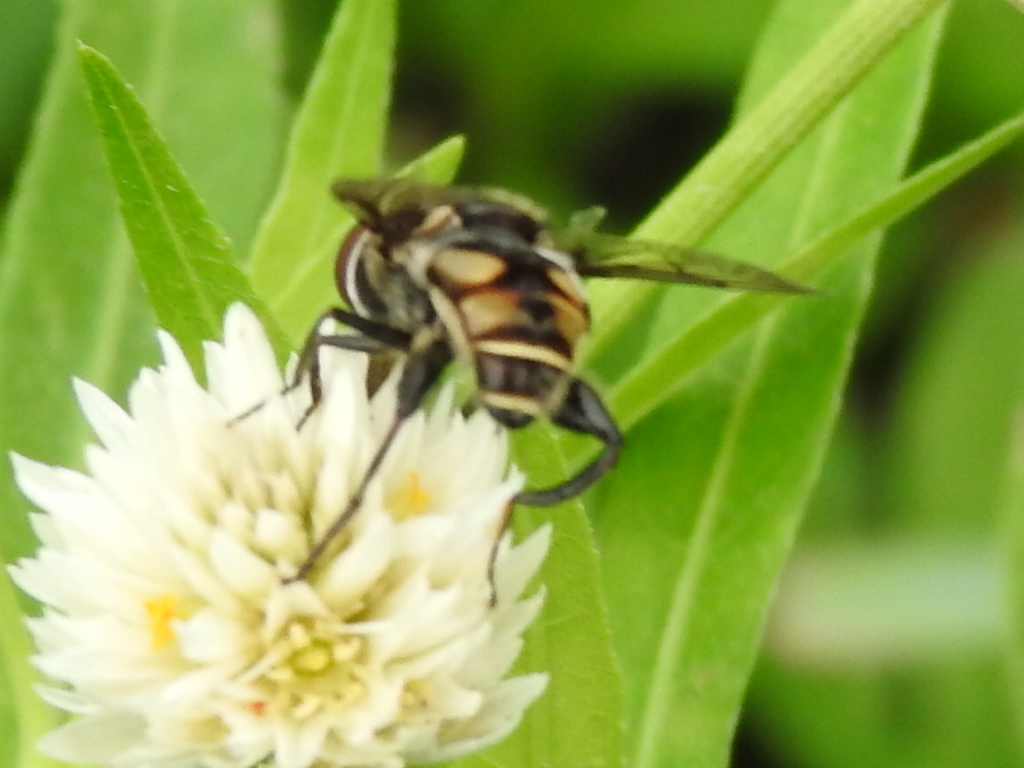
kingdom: Animalia
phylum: Arthropoda
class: Insecta
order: Diptera
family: Syrphidae
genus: Palpada
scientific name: Palpada furcata
